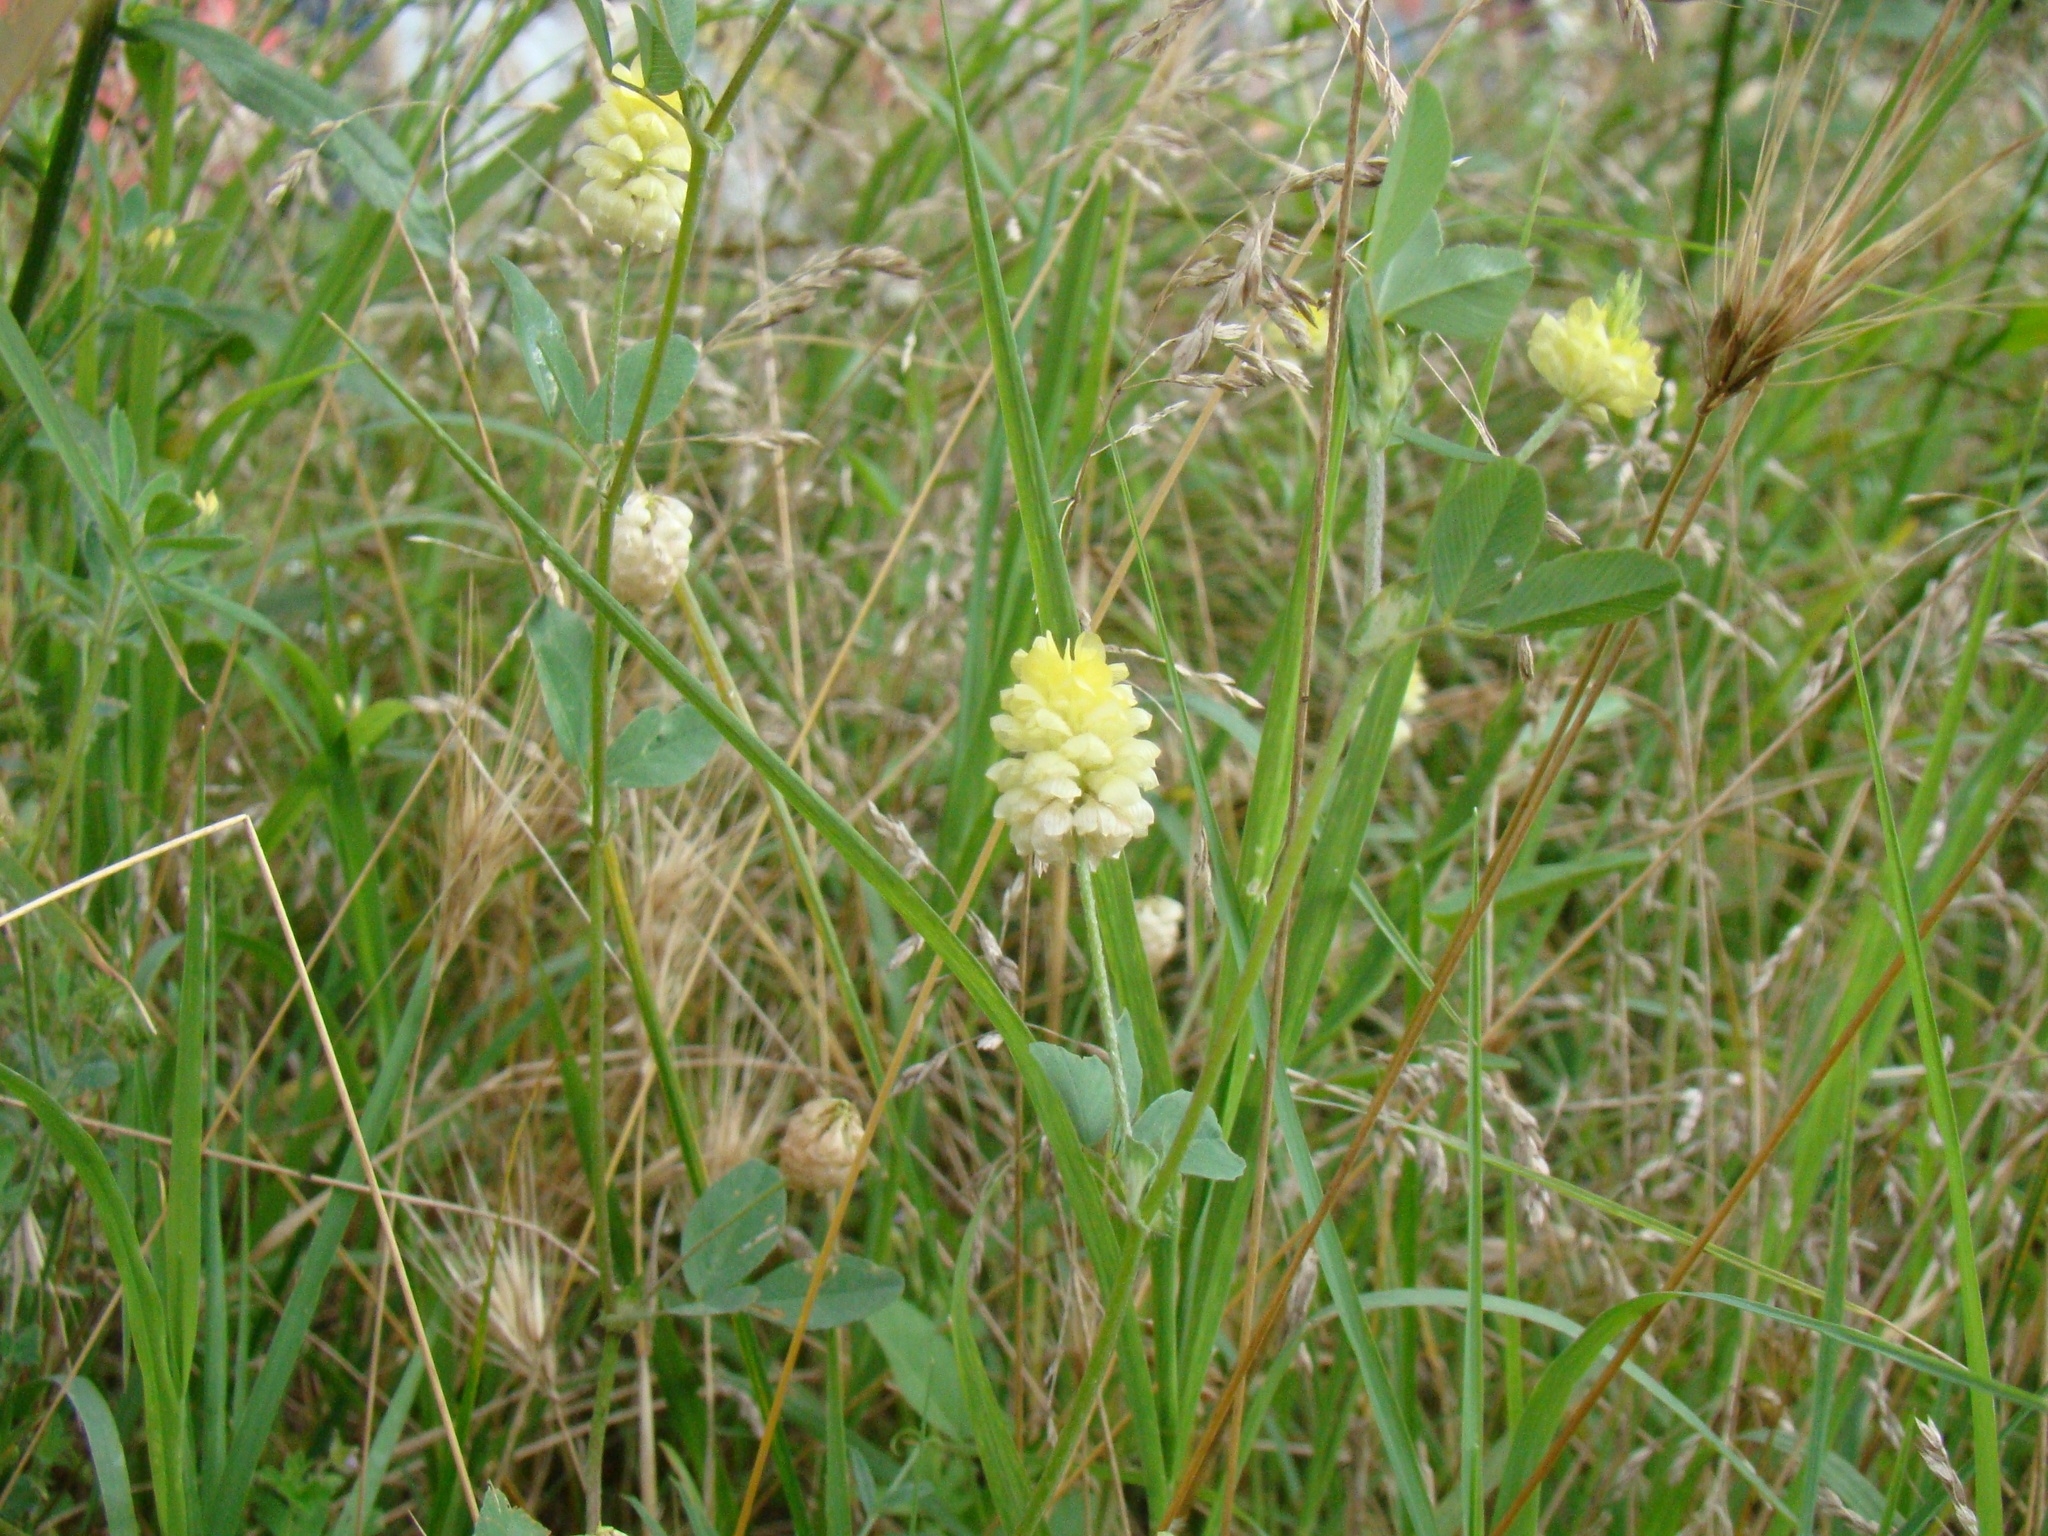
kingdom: Plantae
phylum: Tracheophyta
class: Magnoliopsida
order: Fabales
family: Fabaceae
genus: Trifolium
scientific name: Trifolium campestre
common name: Field clover
